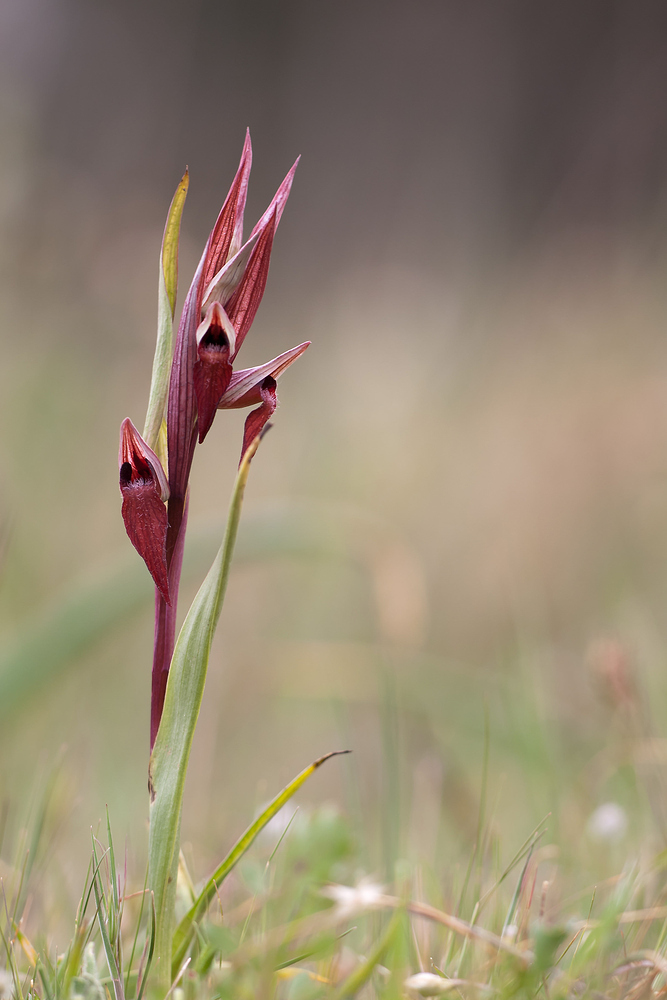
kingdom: Plantae
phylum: Tracheophyta
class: Liliopsida
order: Asparagales
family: Orchidaceae
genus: Serapias
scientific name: Serapias vomeracea
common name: Long-lipped tongue-orchid
